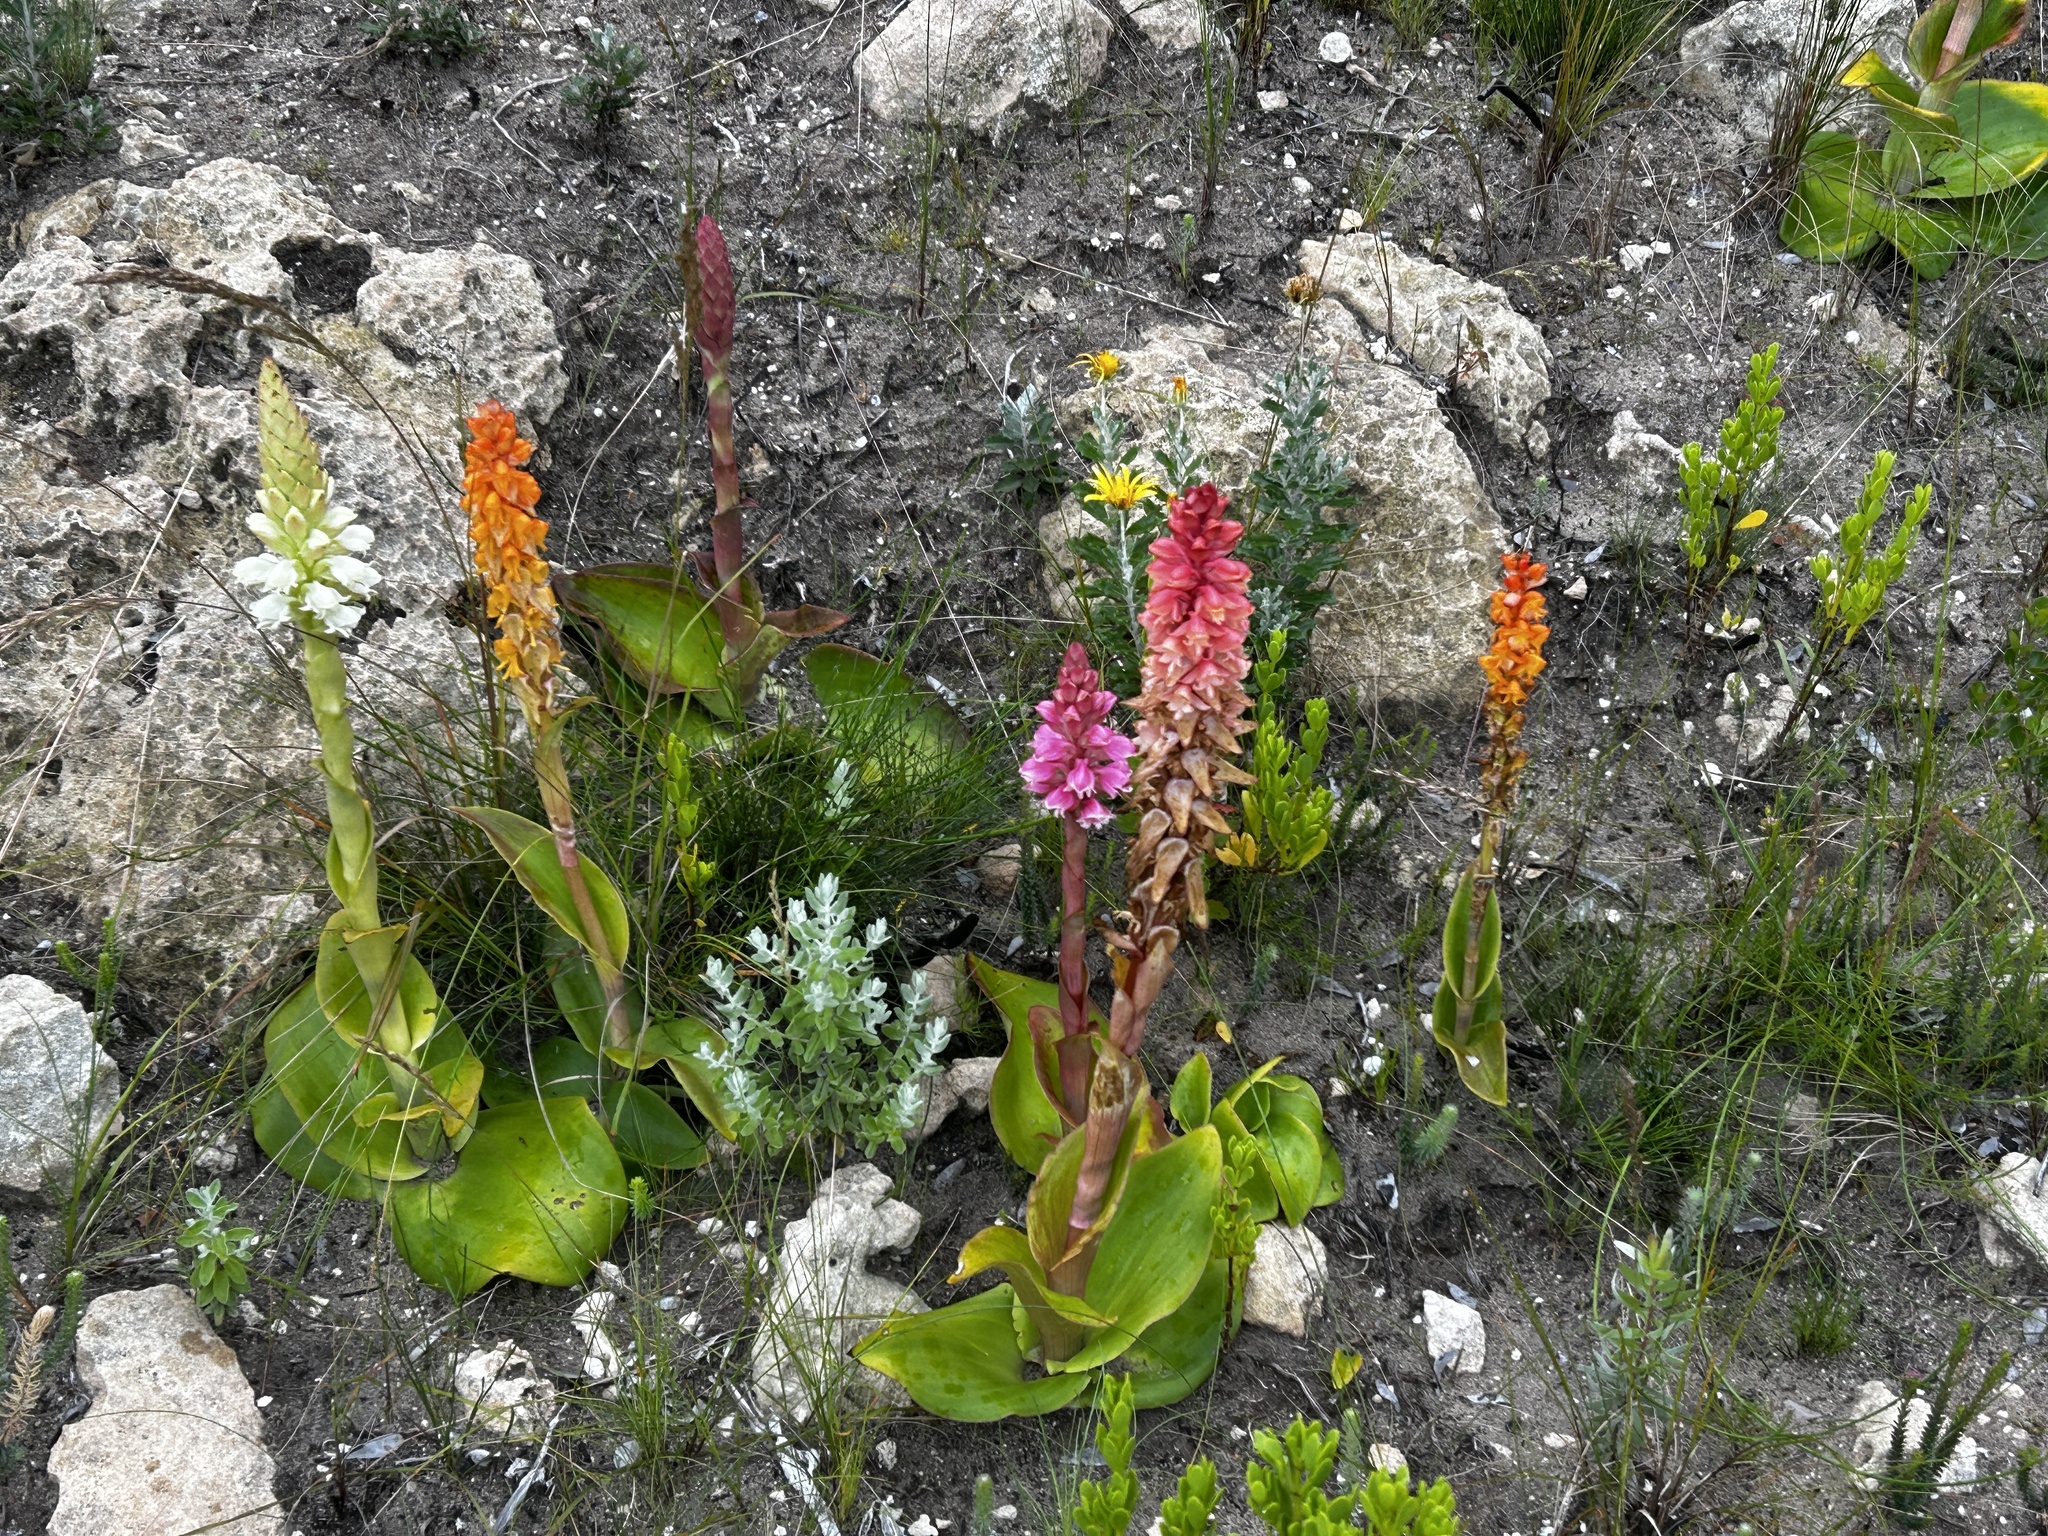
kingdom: Plantae
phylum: Tracheophyta
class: Liliopsida
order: Asparagales
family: Orchidaceae
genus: Satyrium
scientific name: Satyrium
